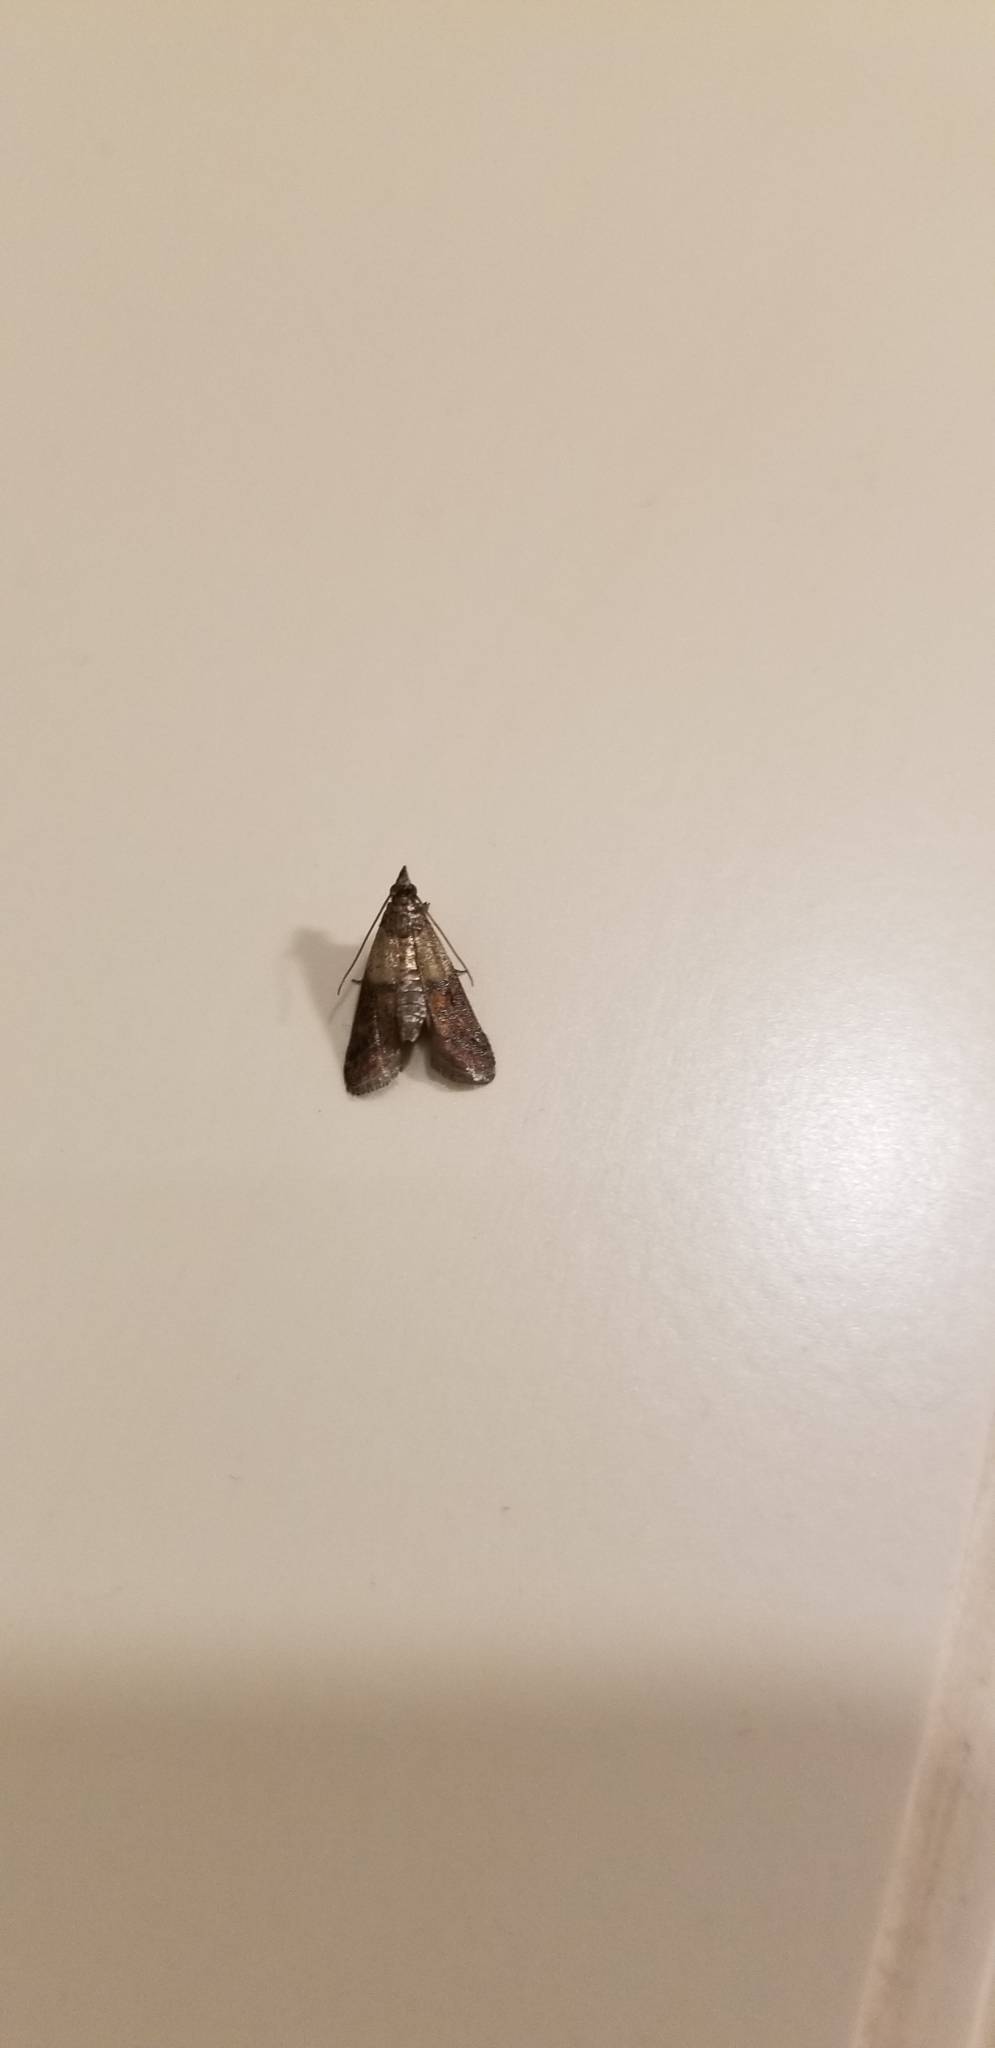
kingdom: Animalia
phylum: Arthropoda
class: Insecta
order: Lepidoptera
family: Pyralidae
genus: Plodia
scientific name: Plodia interpunctella
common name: Indian meal moth
